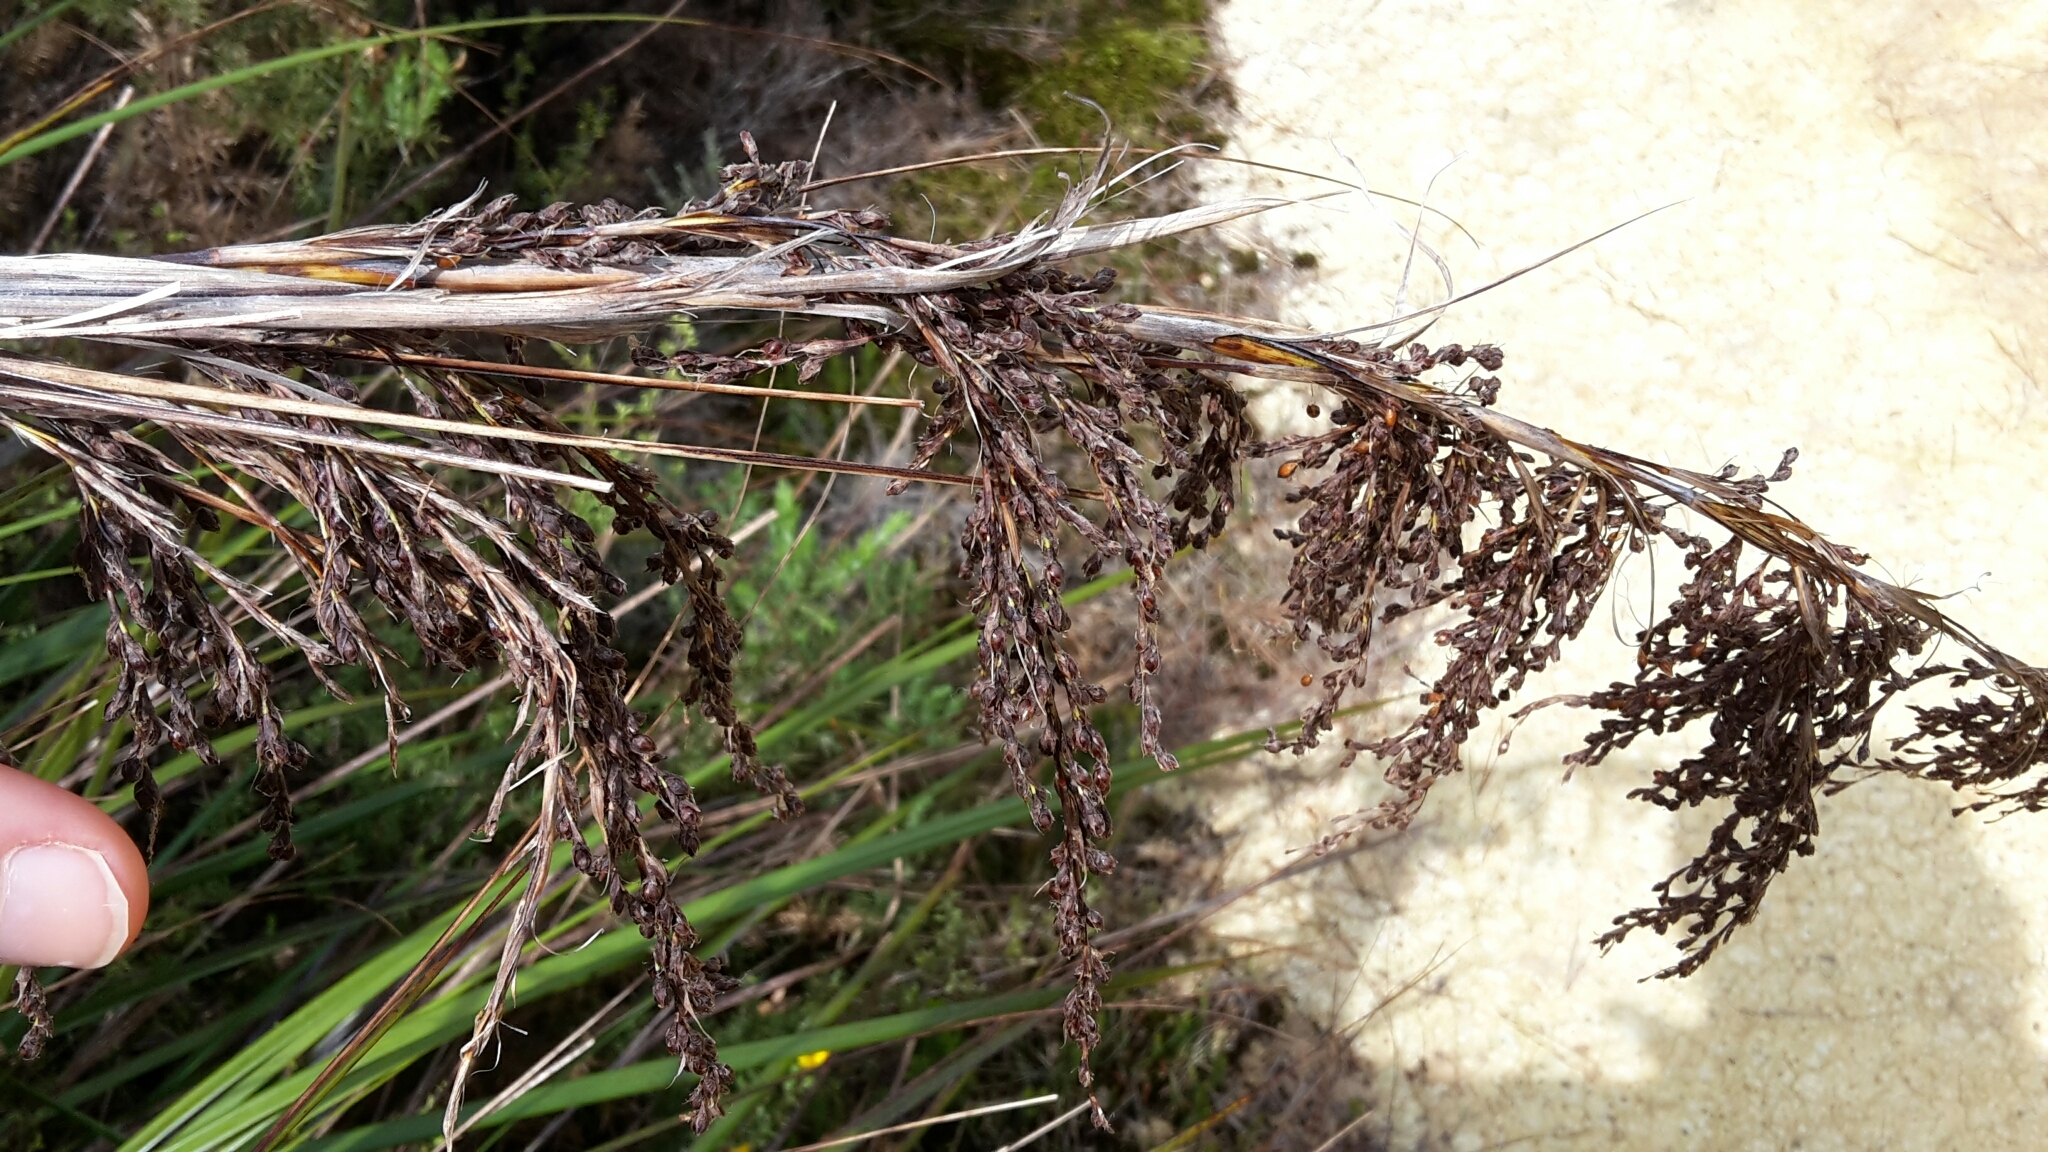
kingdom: Plantae
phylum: Tracheophyta
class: Liliopsida
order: Poales
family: Cyperaceae
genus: Gahnia
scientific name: Gahnia setifolia
